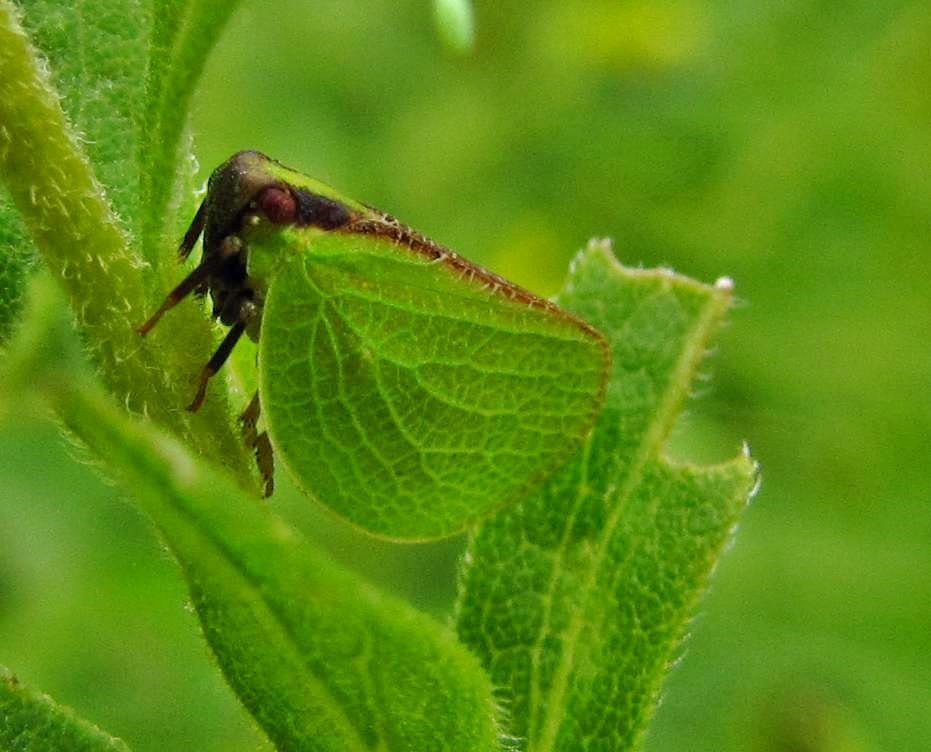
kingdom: Animalia
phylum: Arthropoda
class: Insecta
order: Hemiptera
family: Acanaloniidae
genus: Acanalonia
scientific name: Acanalonia bivittata
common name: Two-striped planthopper
